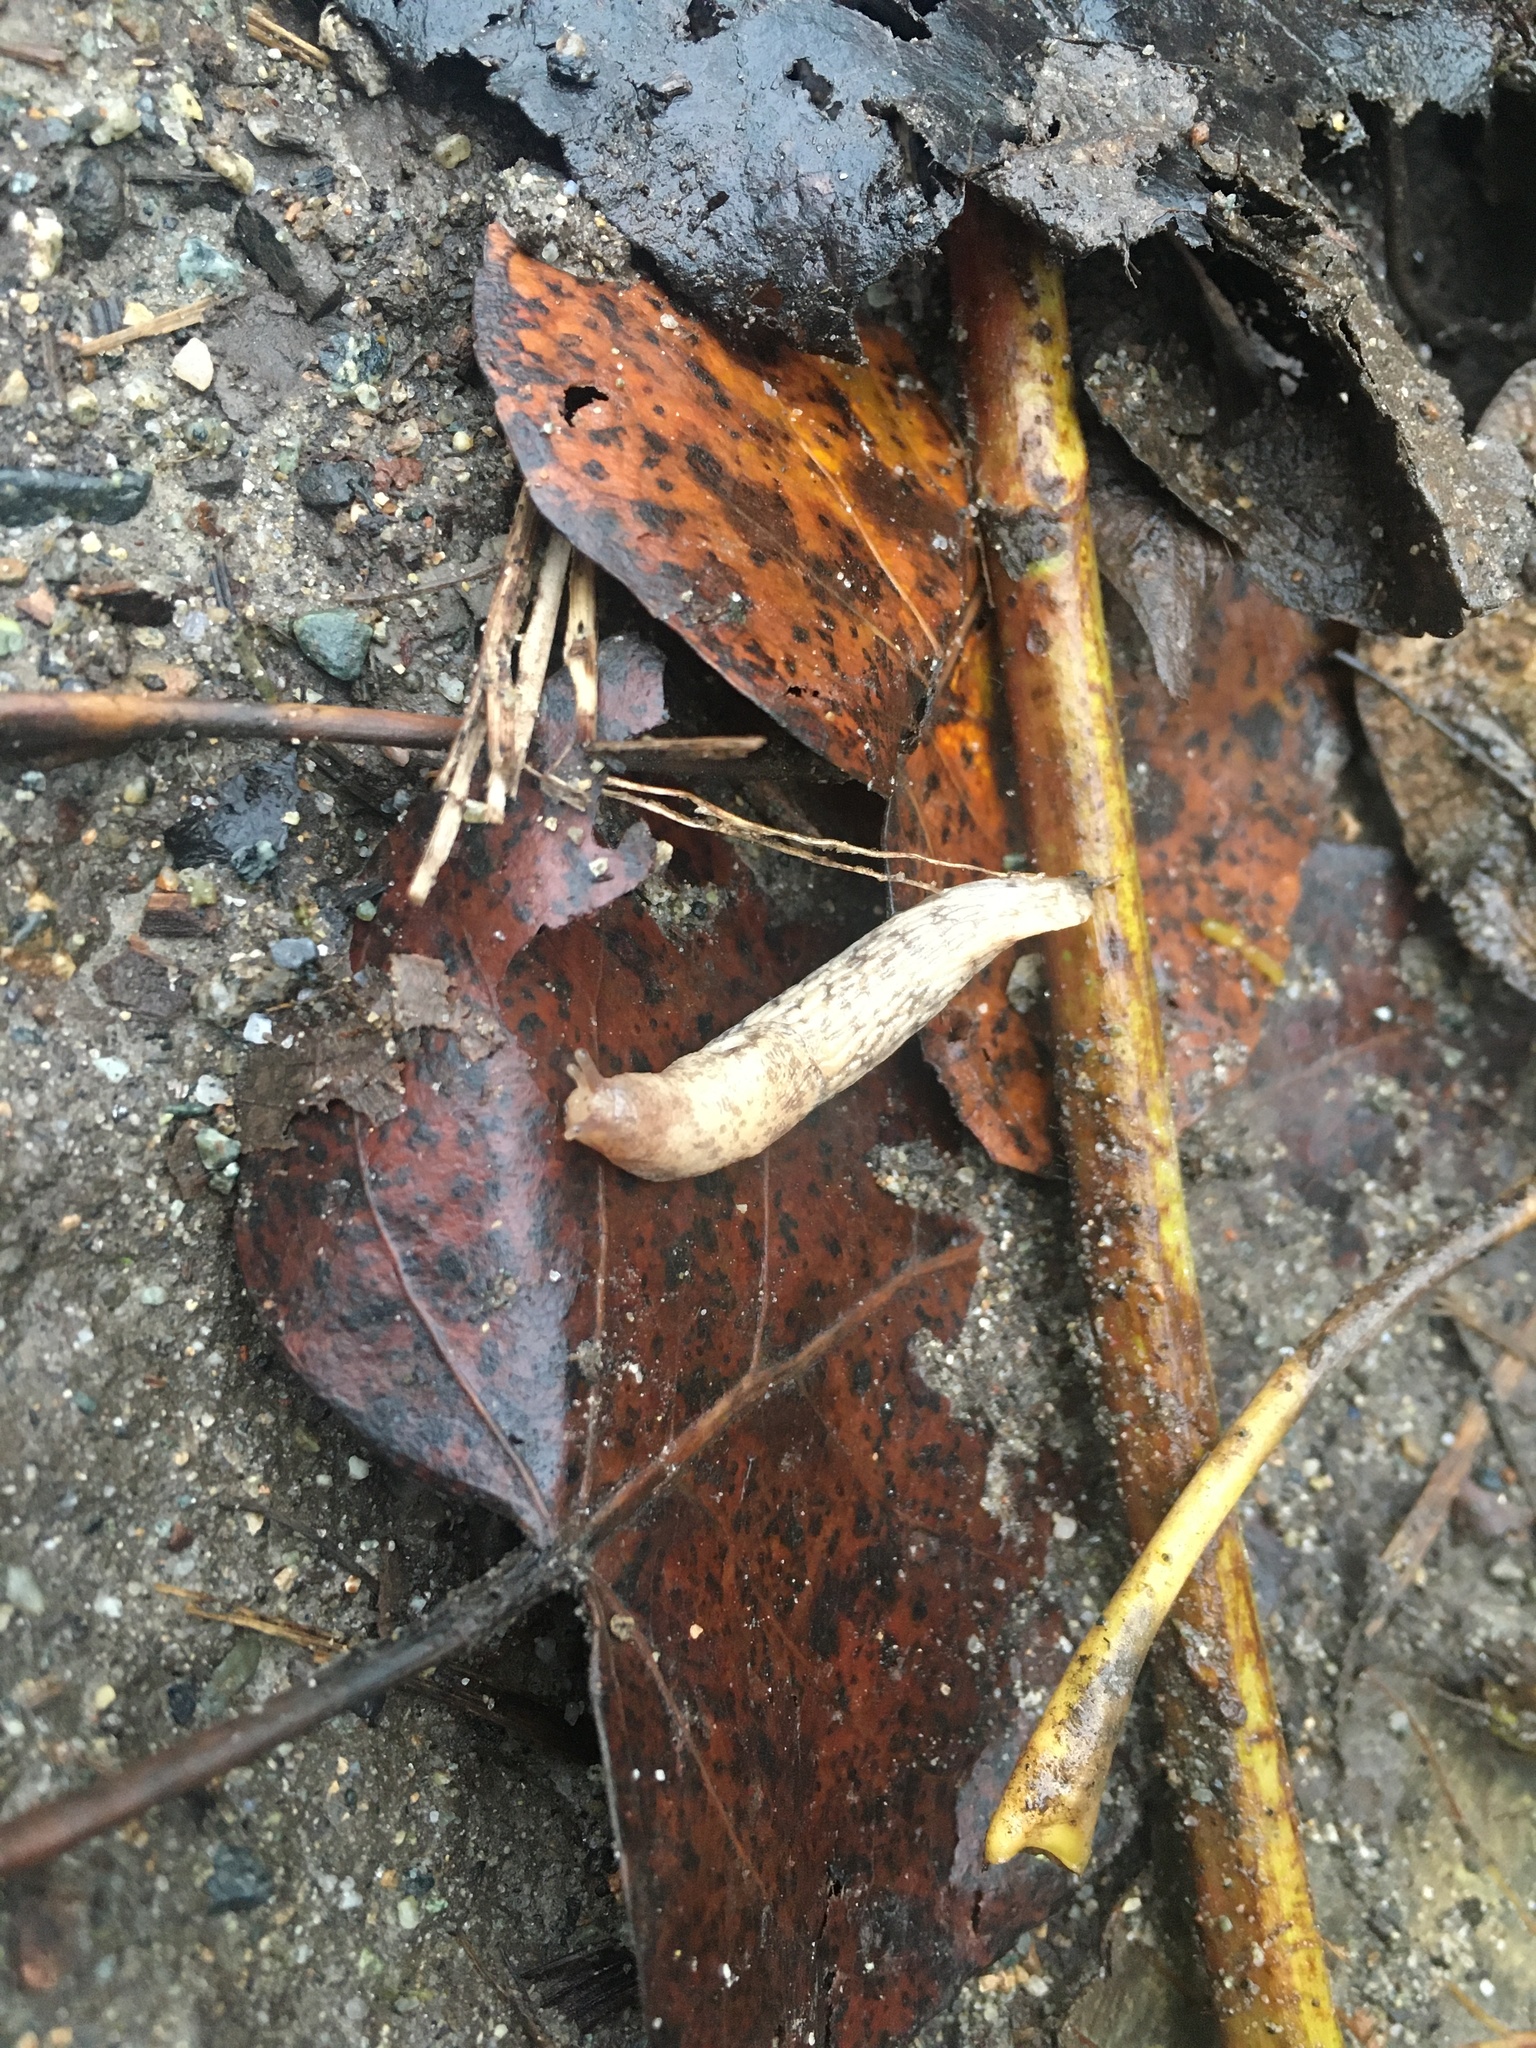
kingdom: Animalia
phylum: Mollusca
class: Gastropoda
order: Stylommatophora
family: Agriolimacidae
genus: Deroceras
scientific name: Deroceras reticulatum
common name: Gray field slug
